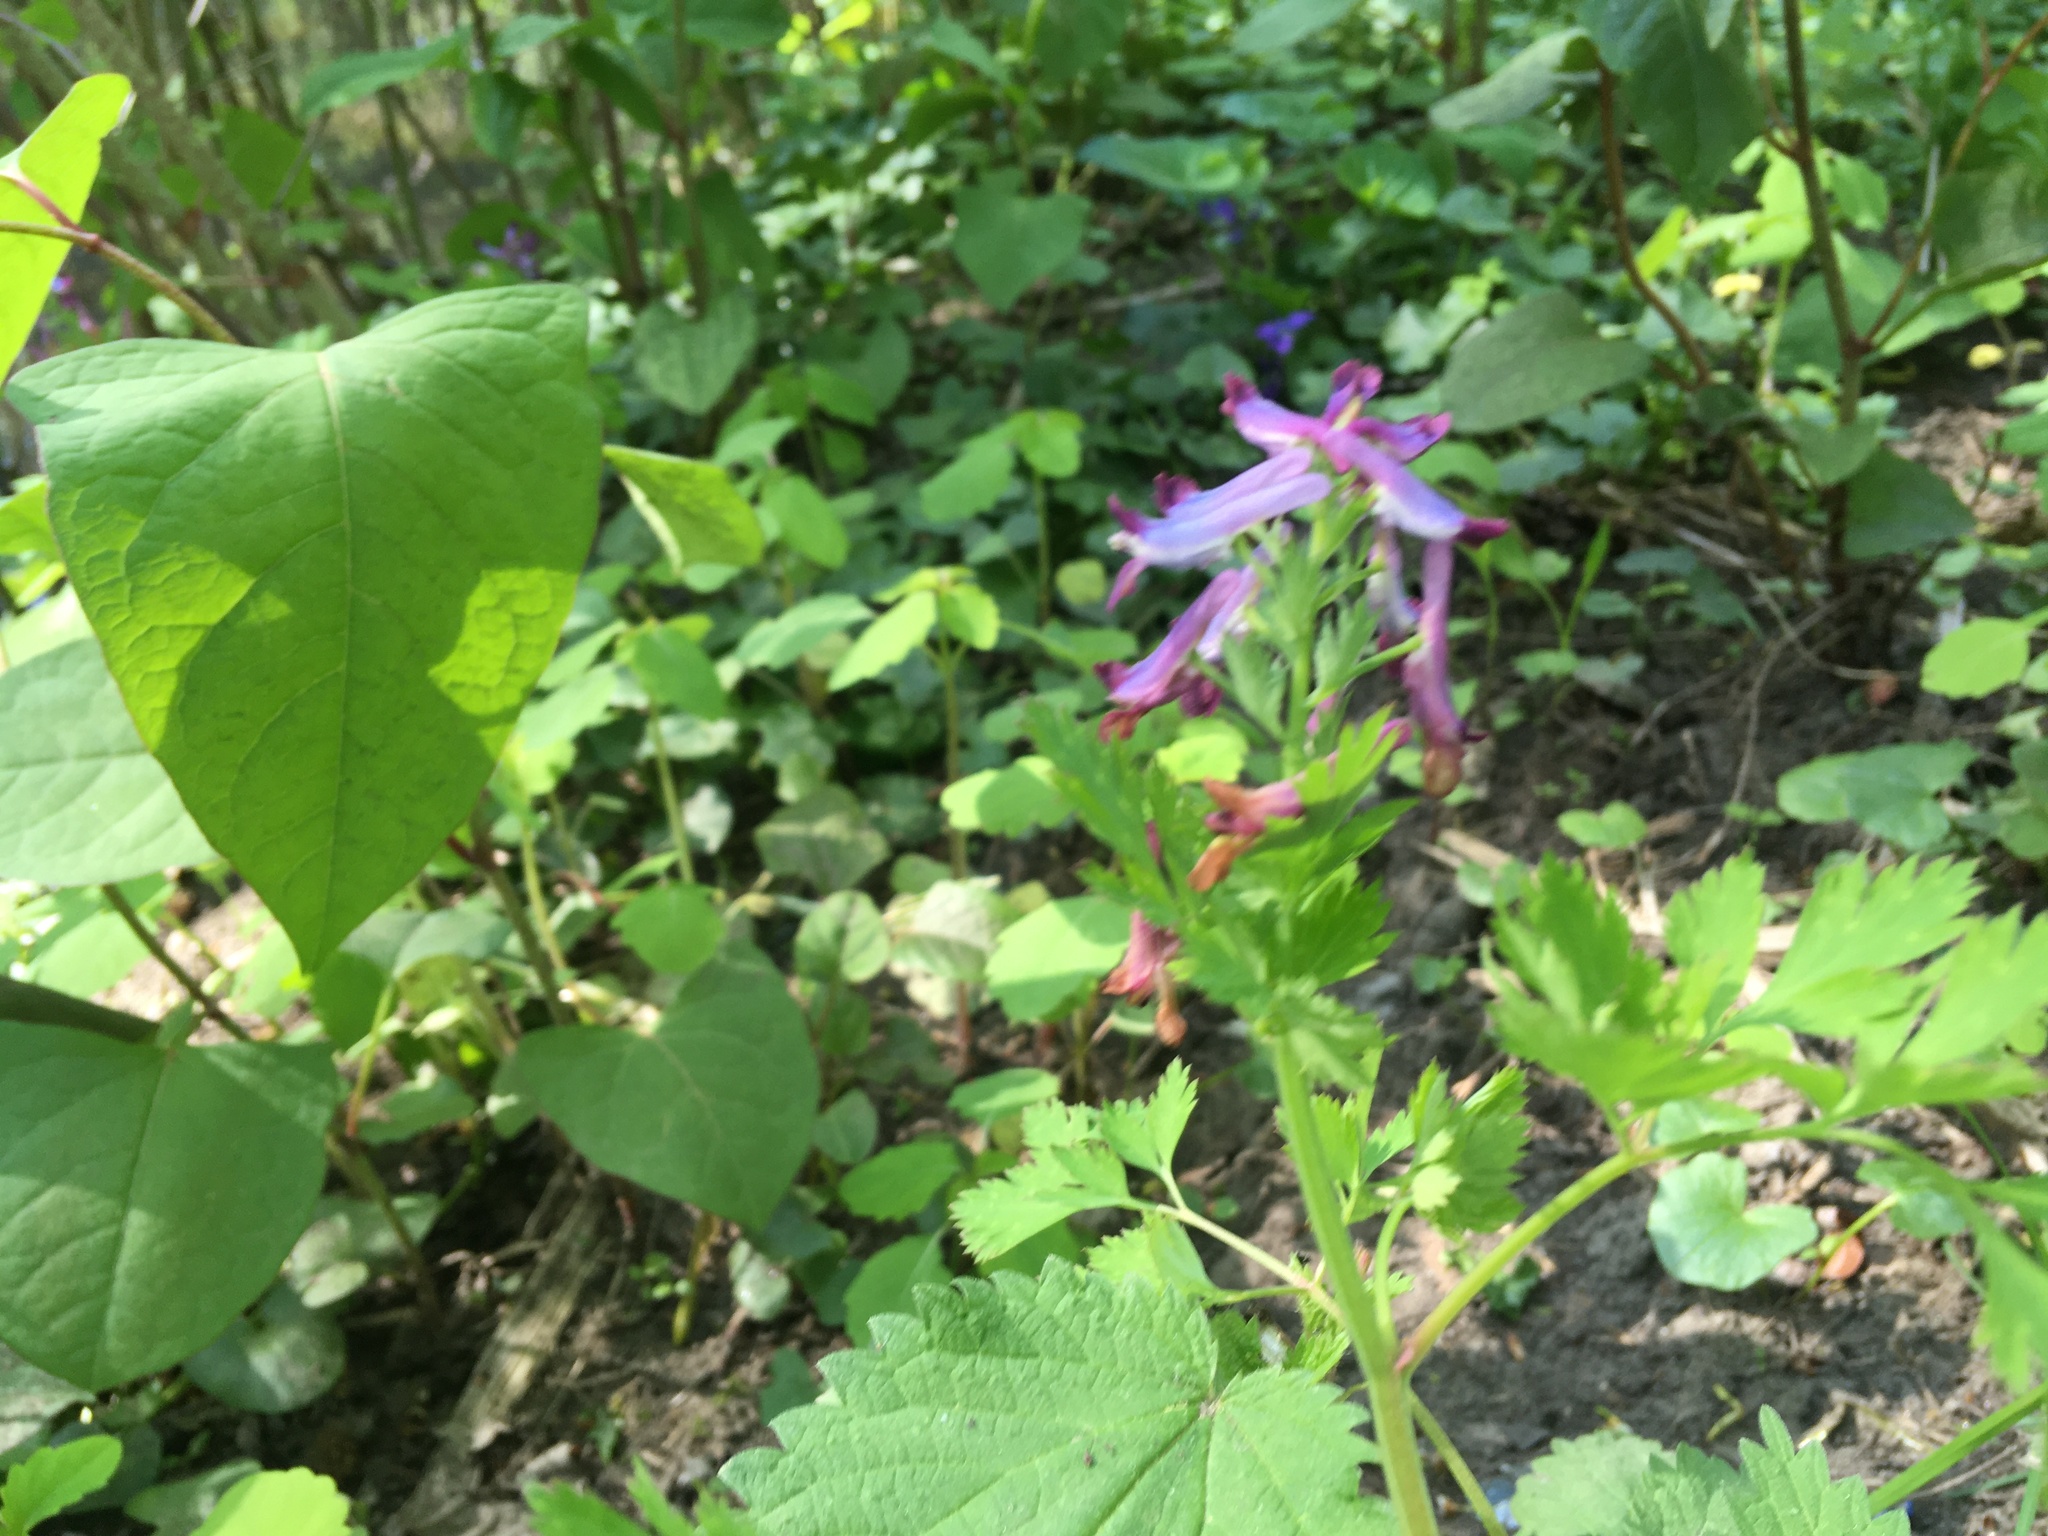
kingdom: Plantae
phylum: Tracheophyta
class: Magnoliopsida
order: Ranunculales
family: Papaveraceae
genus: Corydalis
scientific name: Corydalis incisa
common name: Incised fumewort
